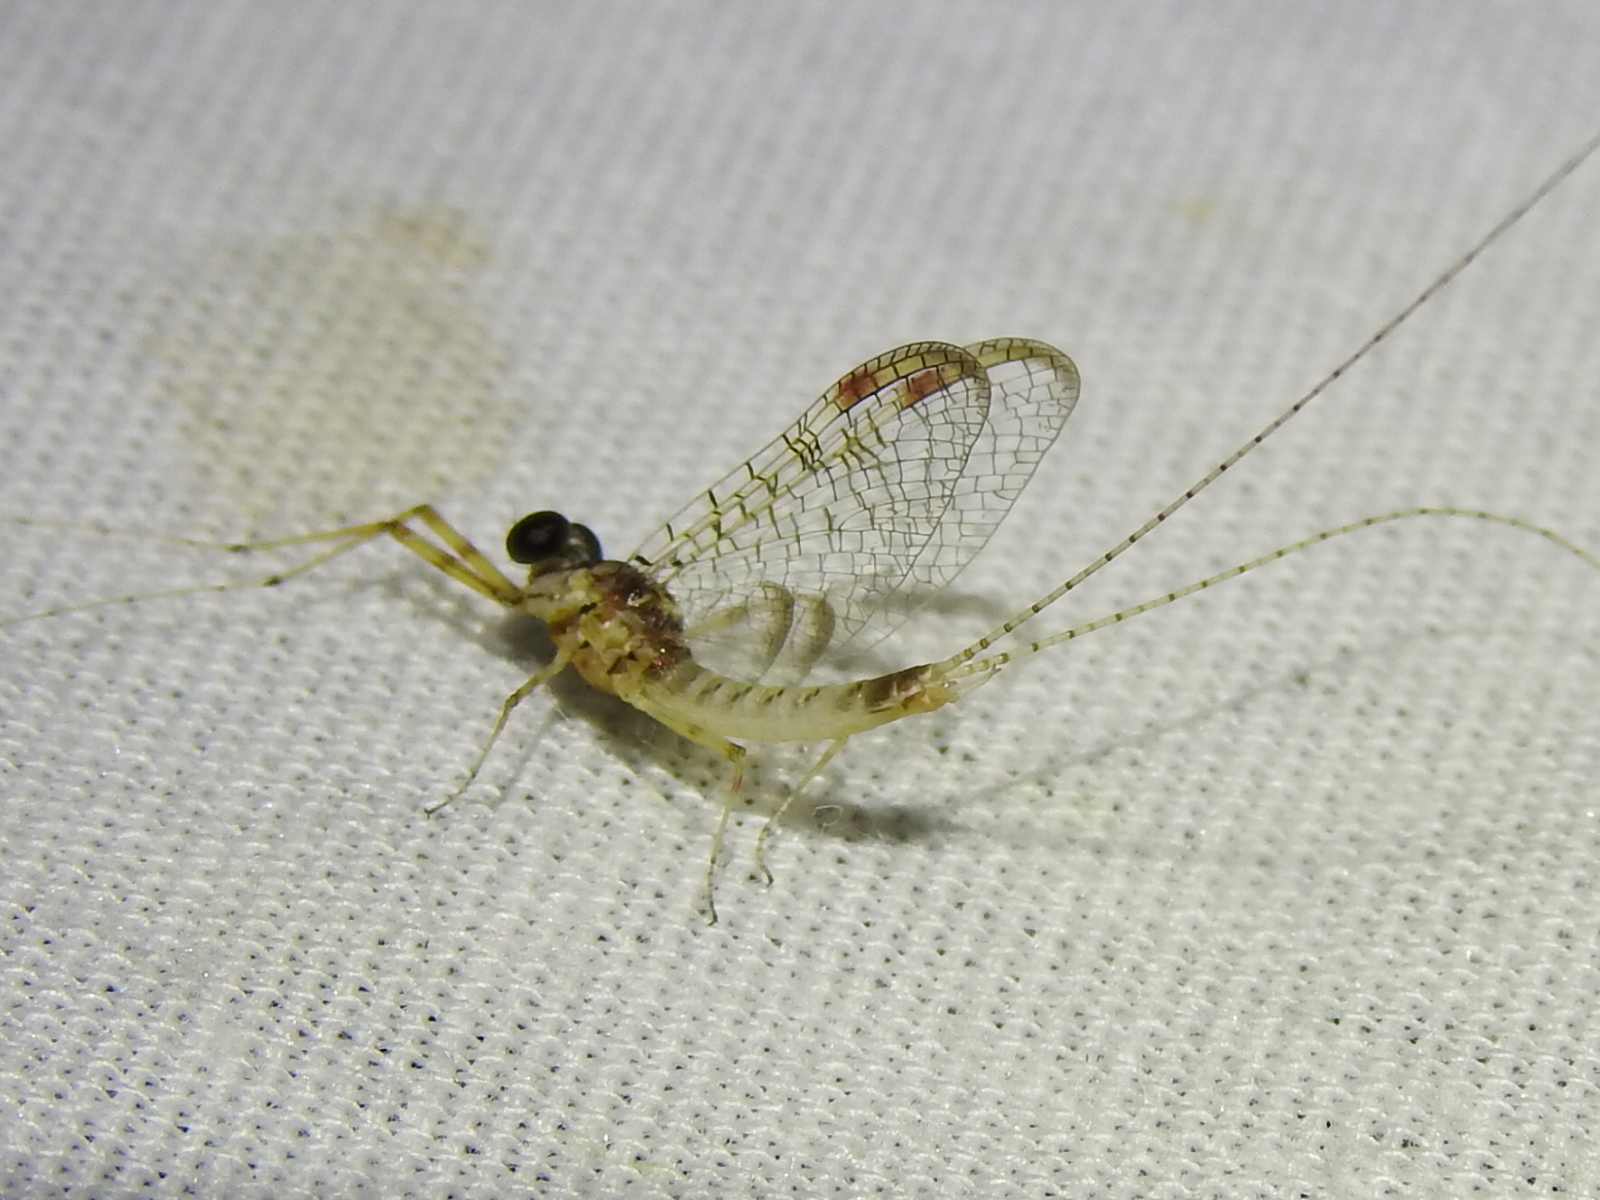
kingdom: Animalia
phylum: Arthropoda
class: Insecta
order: Ephemeroptera
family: Heptageniidae
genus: Stenonema
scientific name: Stenonema femoratum
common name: Dark cahill
